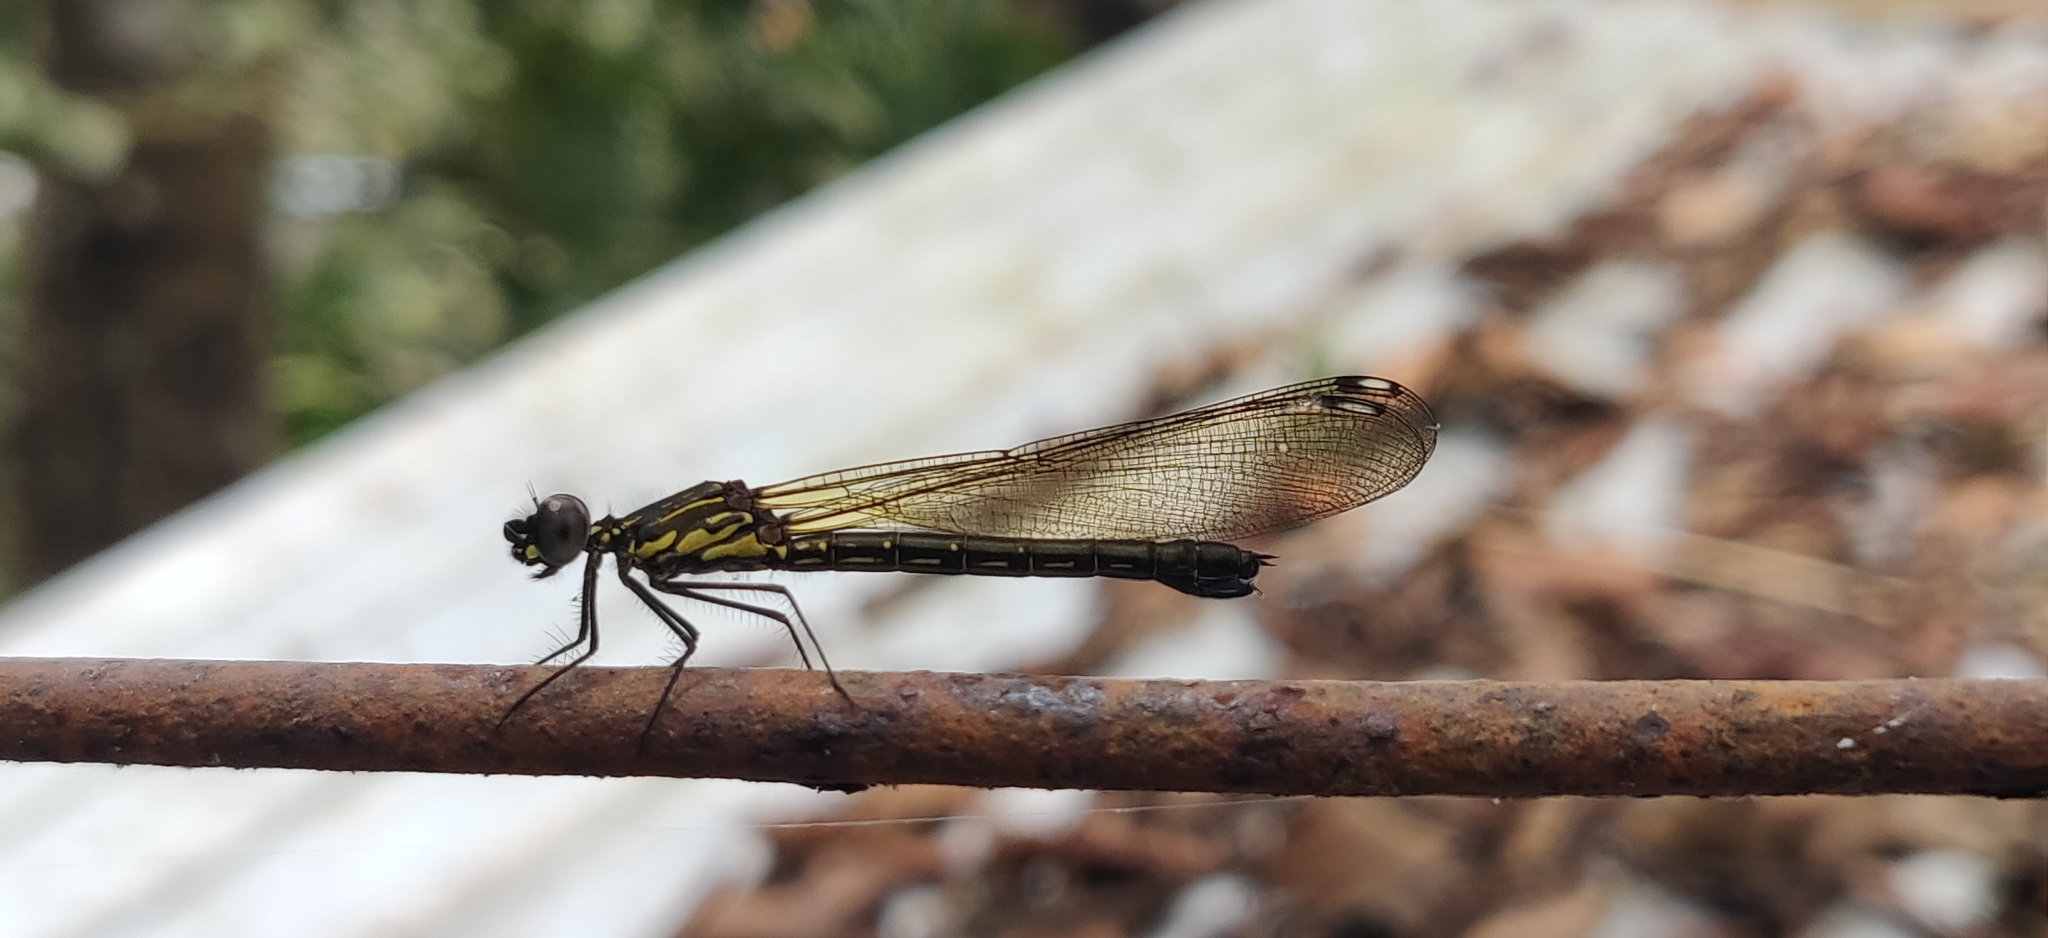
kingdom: Animalia
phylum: Arthropoda
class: Insecta
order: Odonata
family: Chlorocyphidae
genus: Heliocypha
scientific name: Heliocypha bisignata
